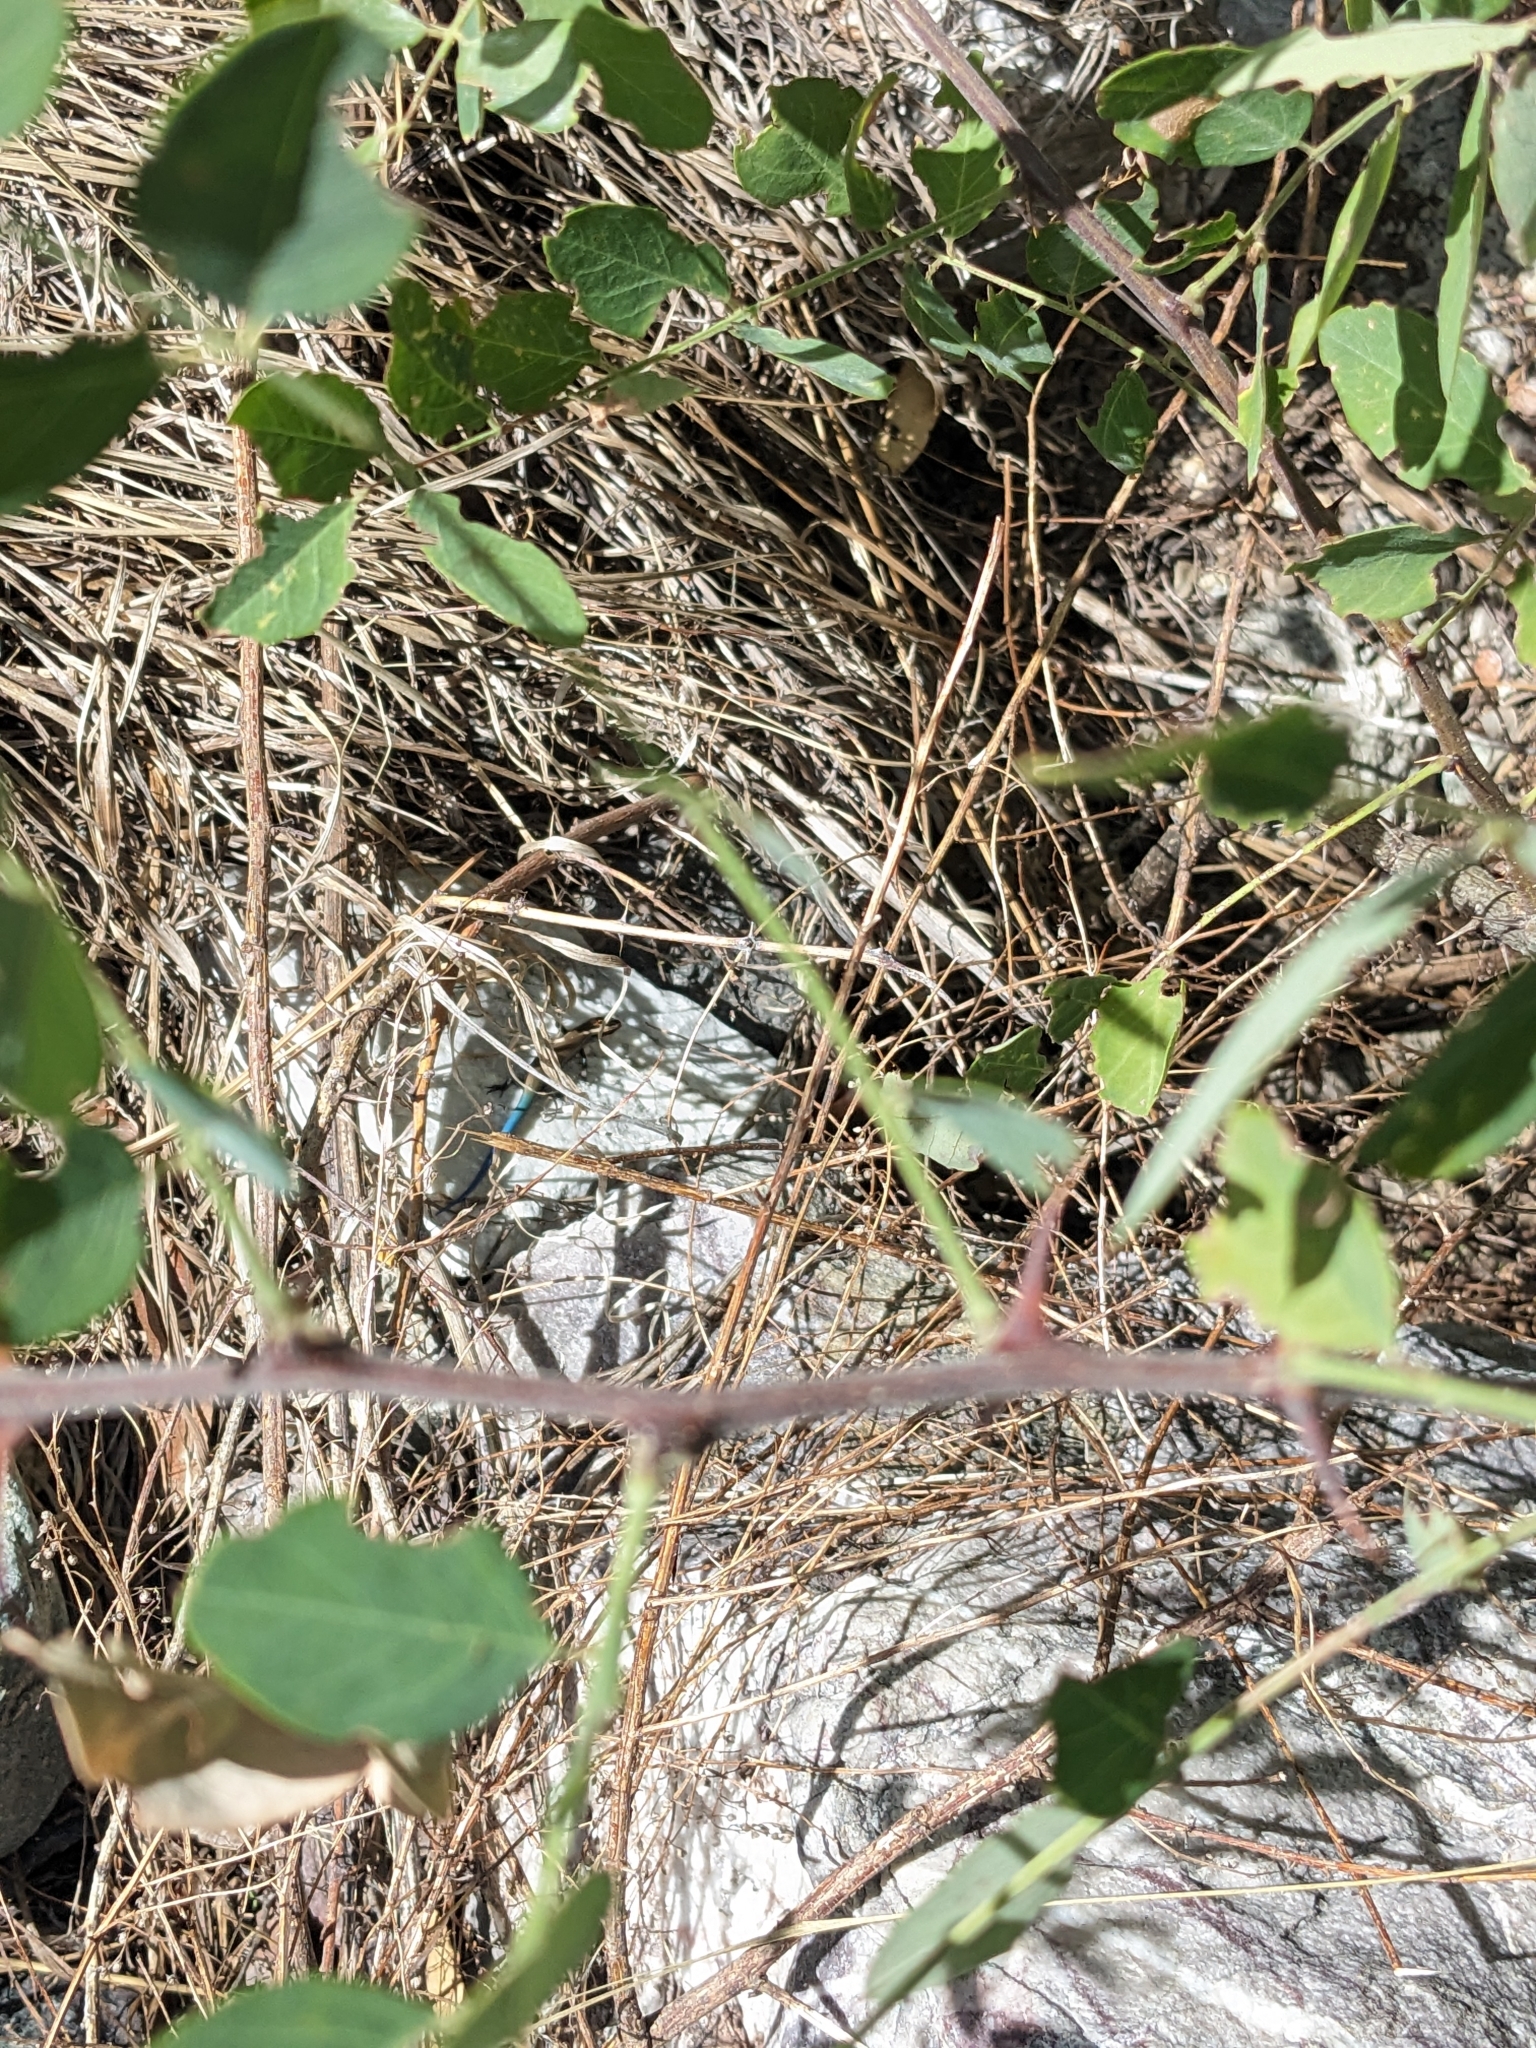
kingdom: Animalia
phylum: Chordata
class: Squamata
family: Scincidae
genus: Plestiodon
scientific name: Plestiodon callicephalus
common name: Mountain skink
